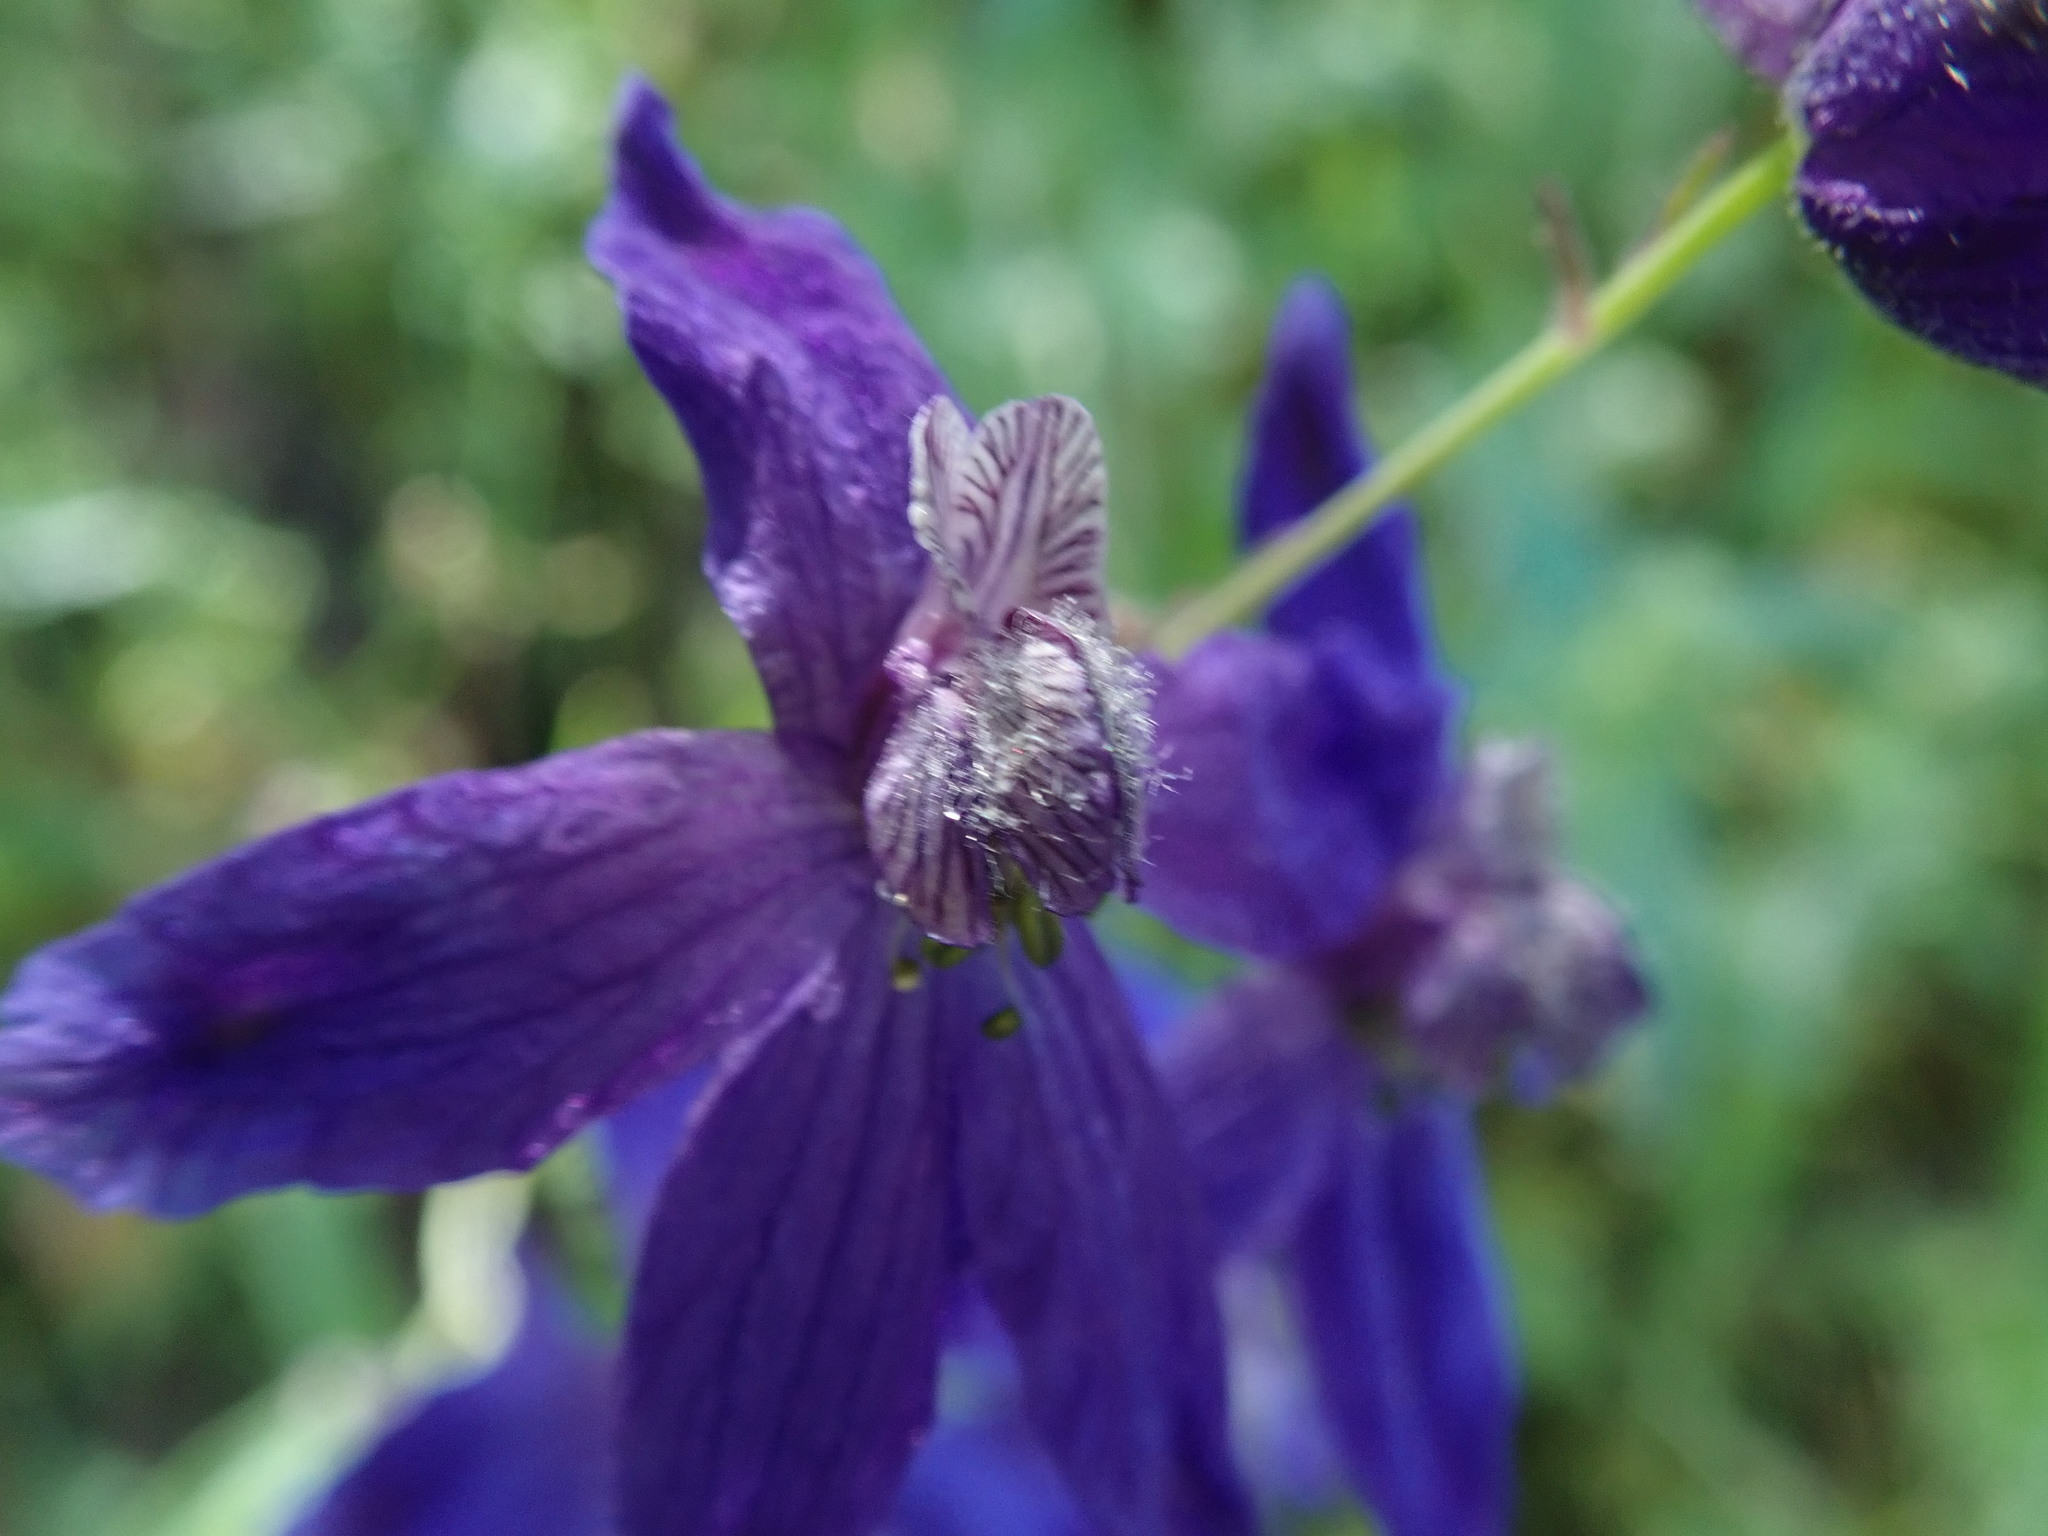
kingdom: Plantae
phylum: Tracheophyta
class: Magnoliopsida
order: Ranunculales
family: Ranunculaceae
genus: Delphinium
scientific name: Delphinium patens
